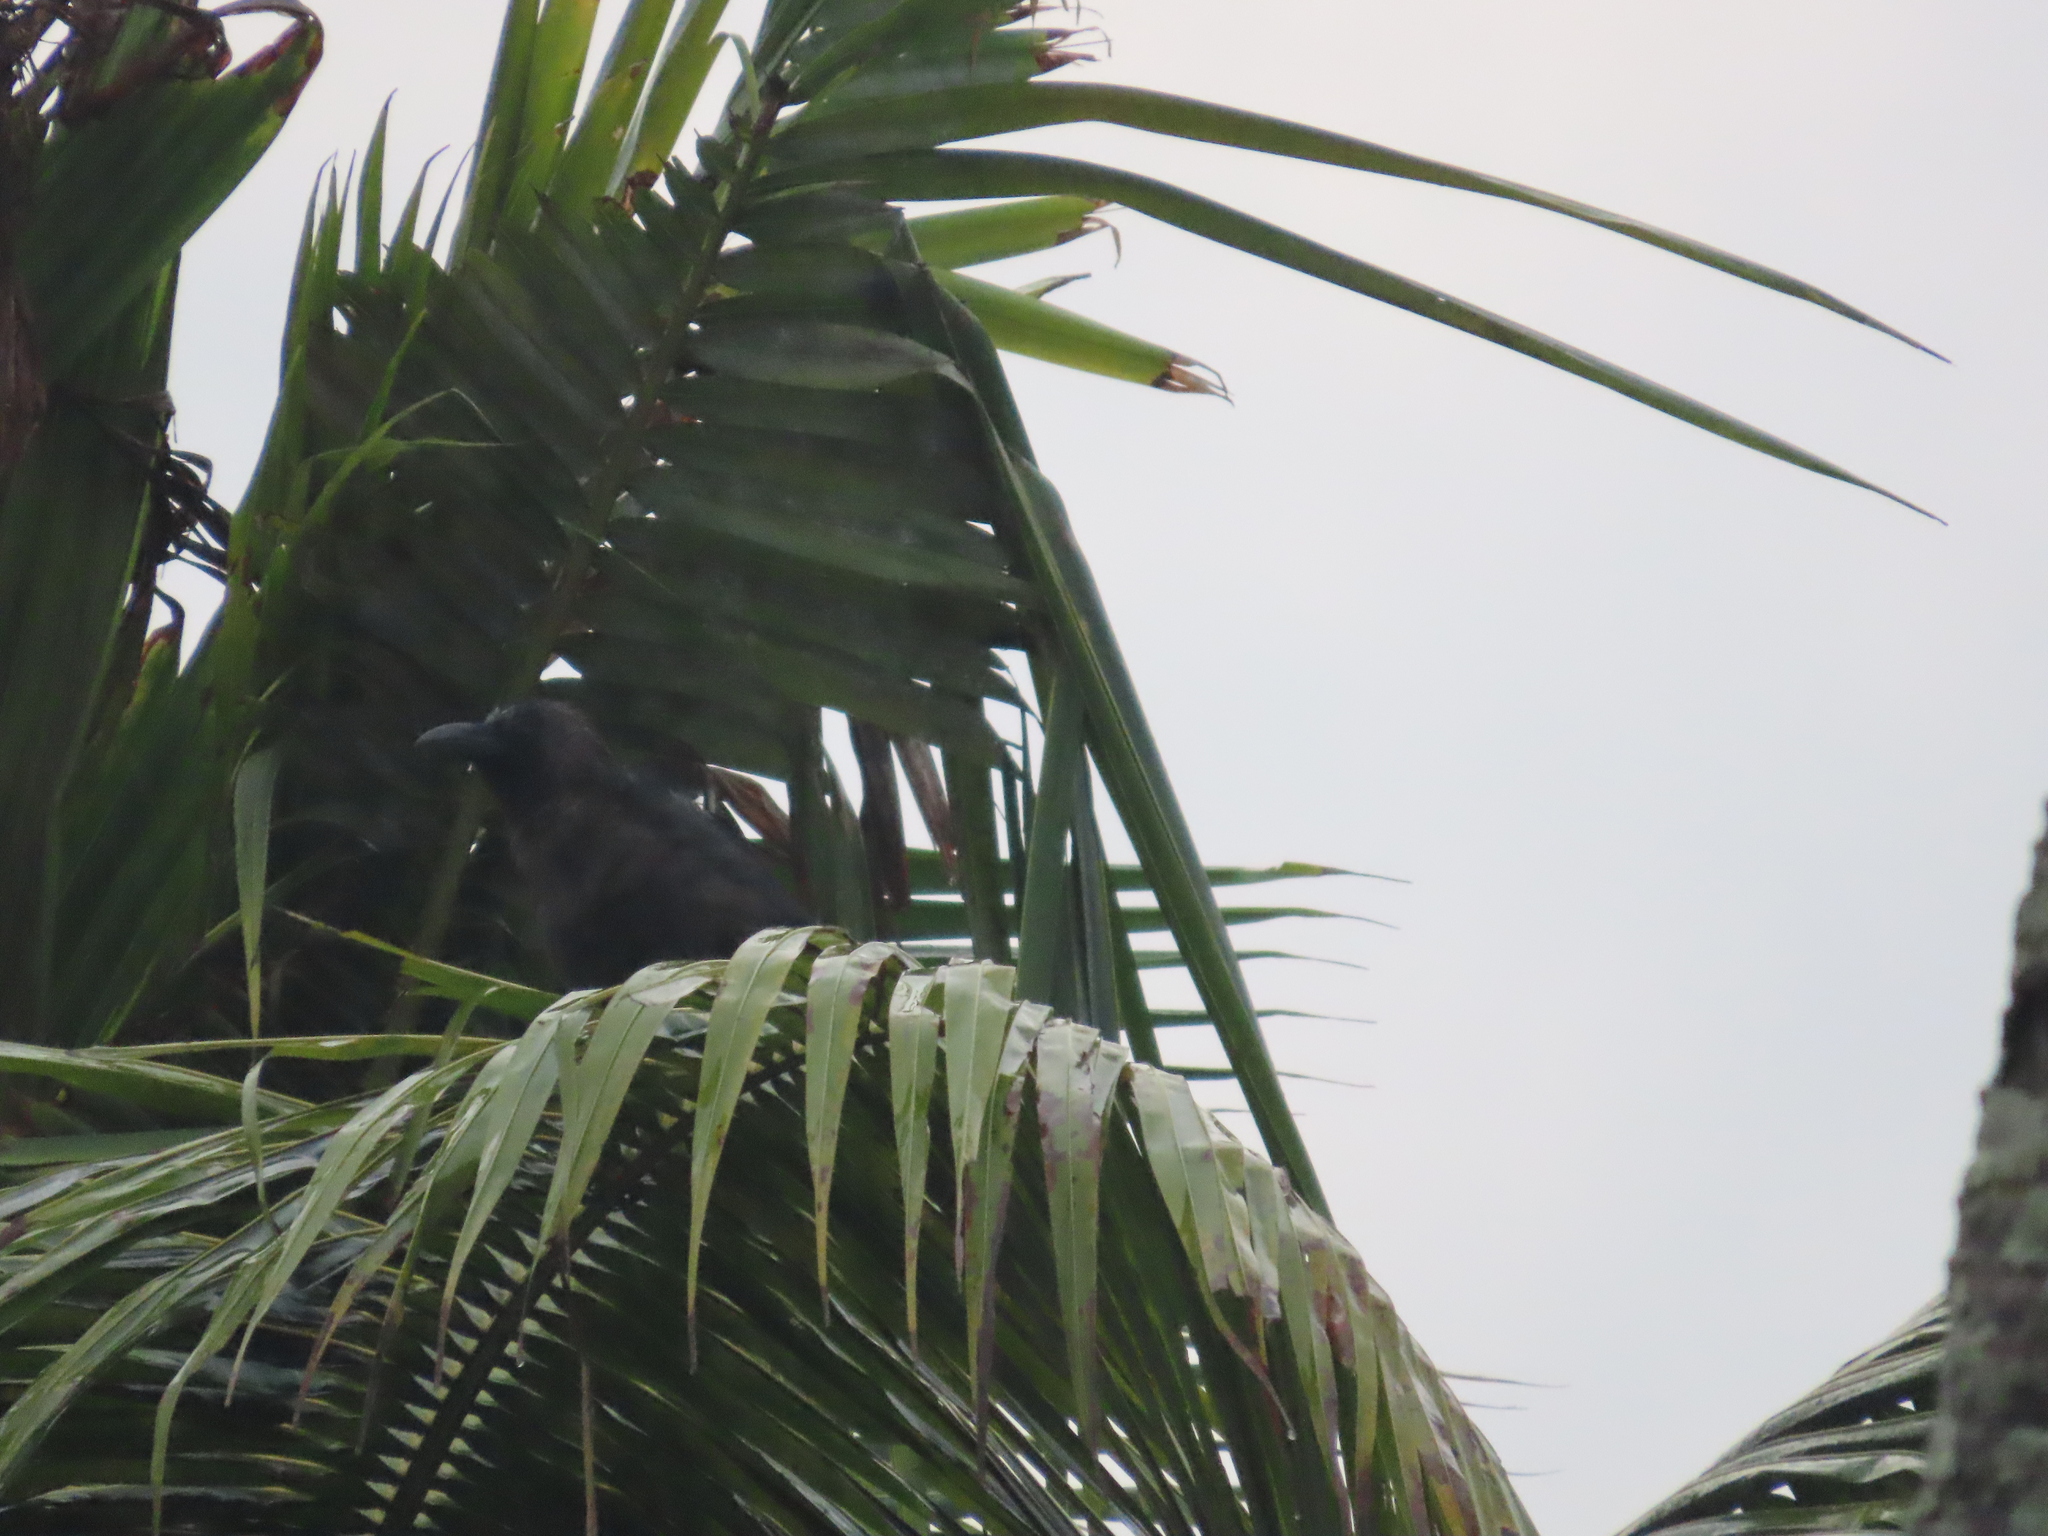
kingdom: Animalia
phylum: Chordata
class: Aves
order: Passeriformes
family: Corvidae
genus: Corvus
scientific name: Corvus splendens
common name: House crow
